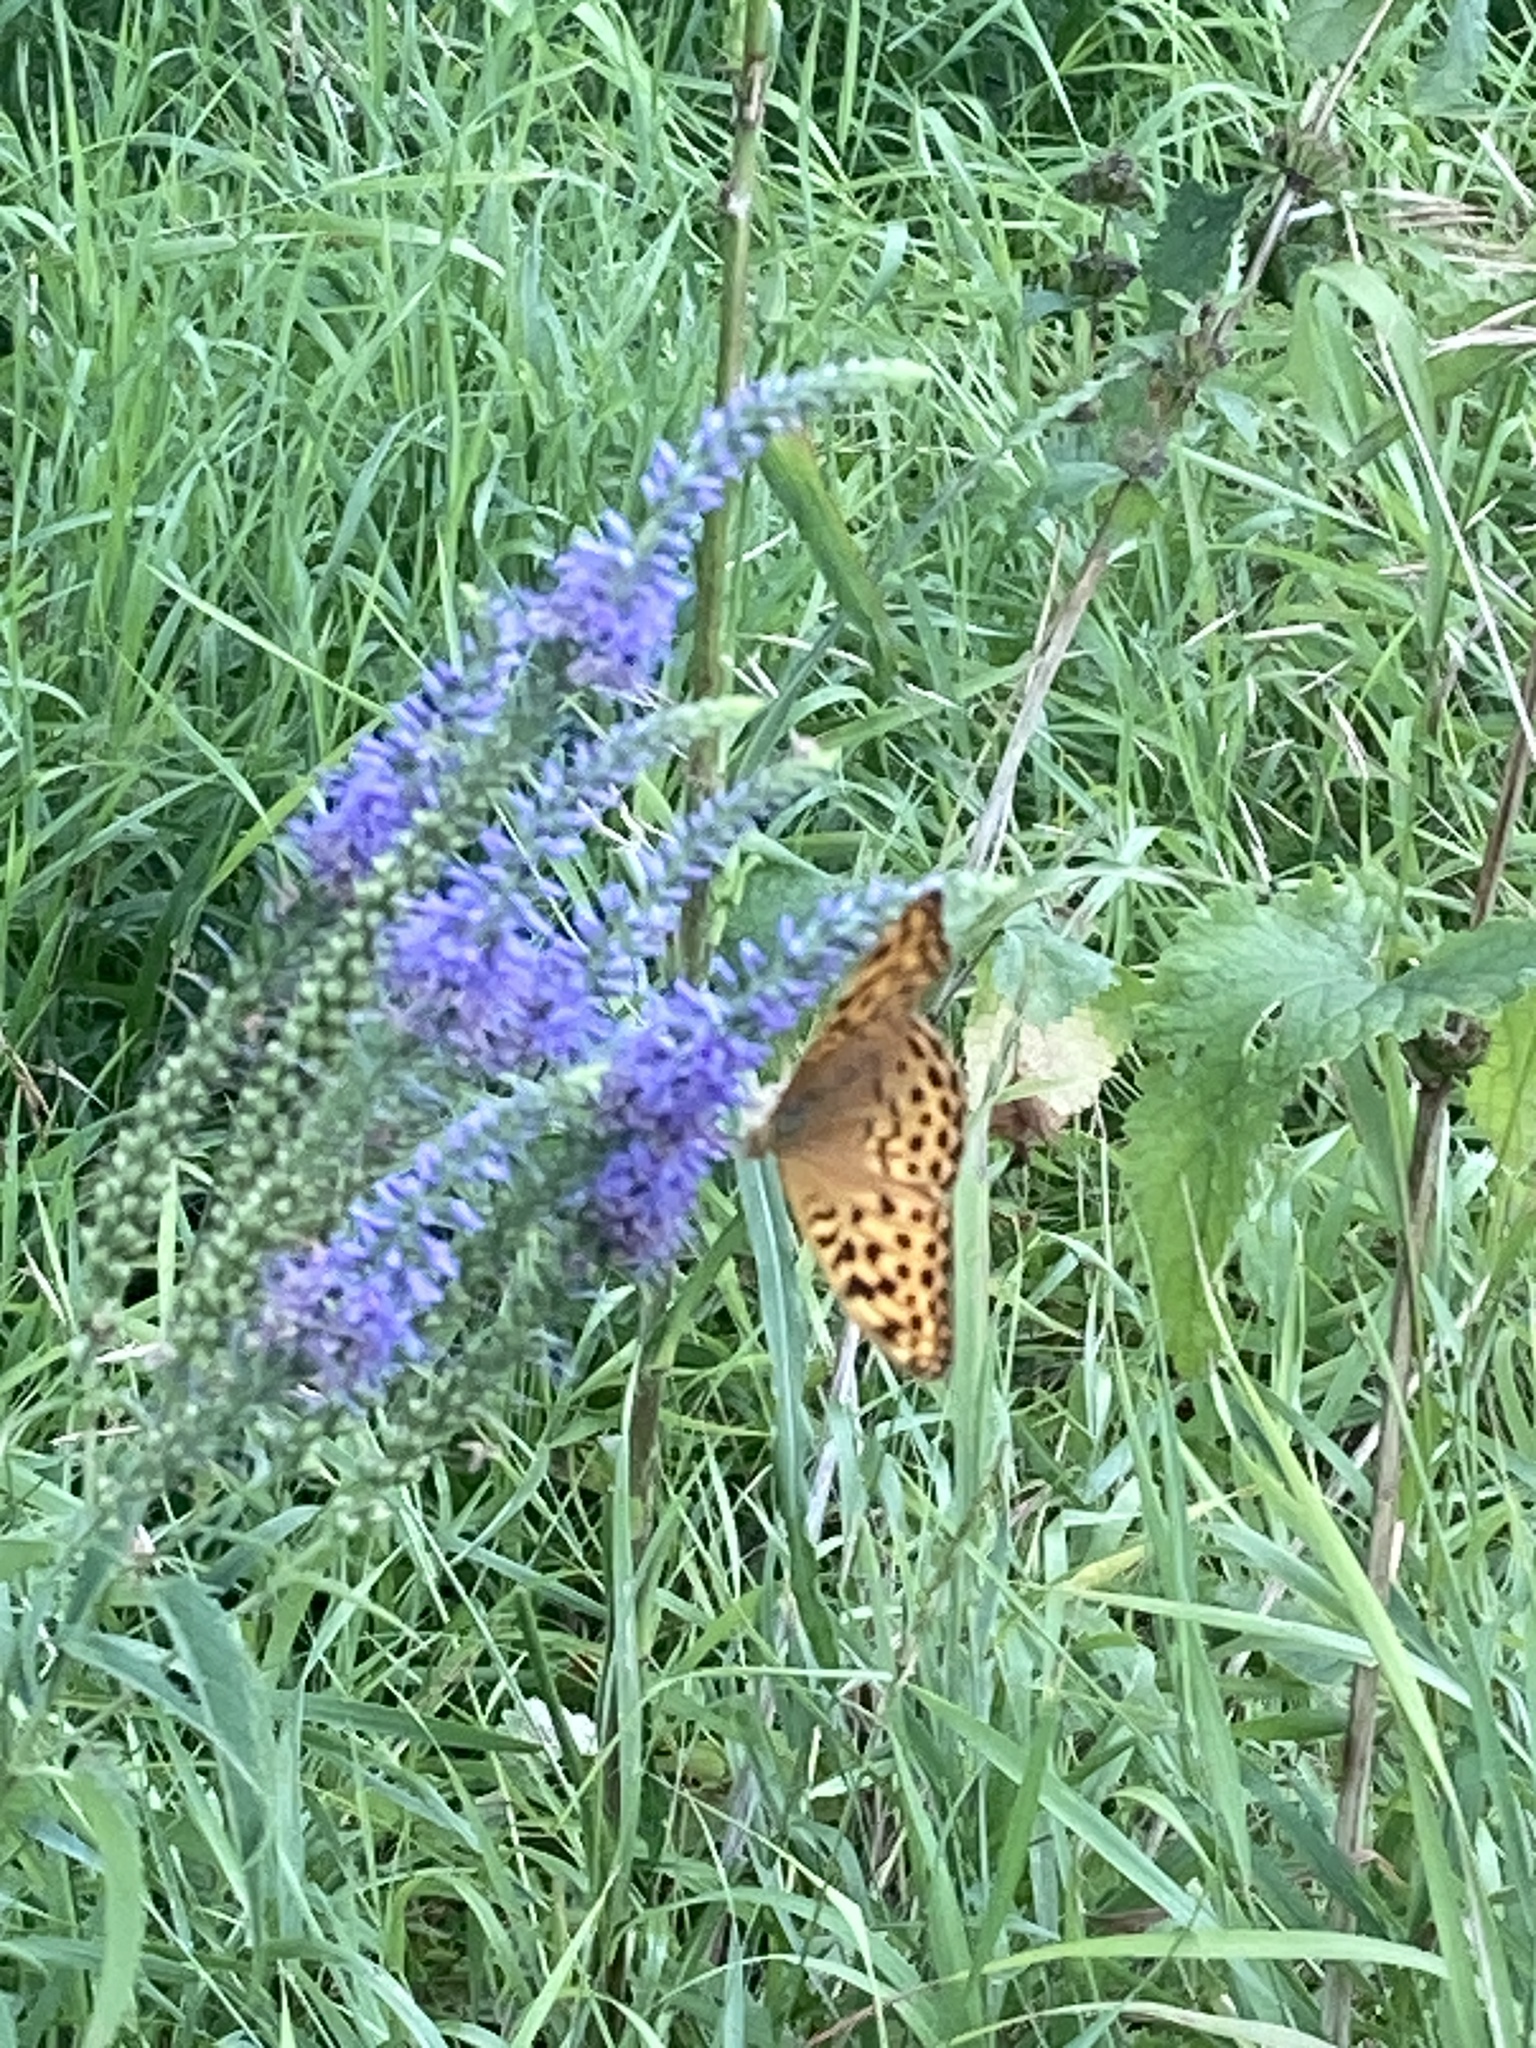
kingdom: Animalia
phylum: Arthropoda
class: Insecta
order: Lepidoptera
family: Nymphalidae
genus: Argynnis
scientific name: Argynnis paphia
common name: Silver-washed fritillary
